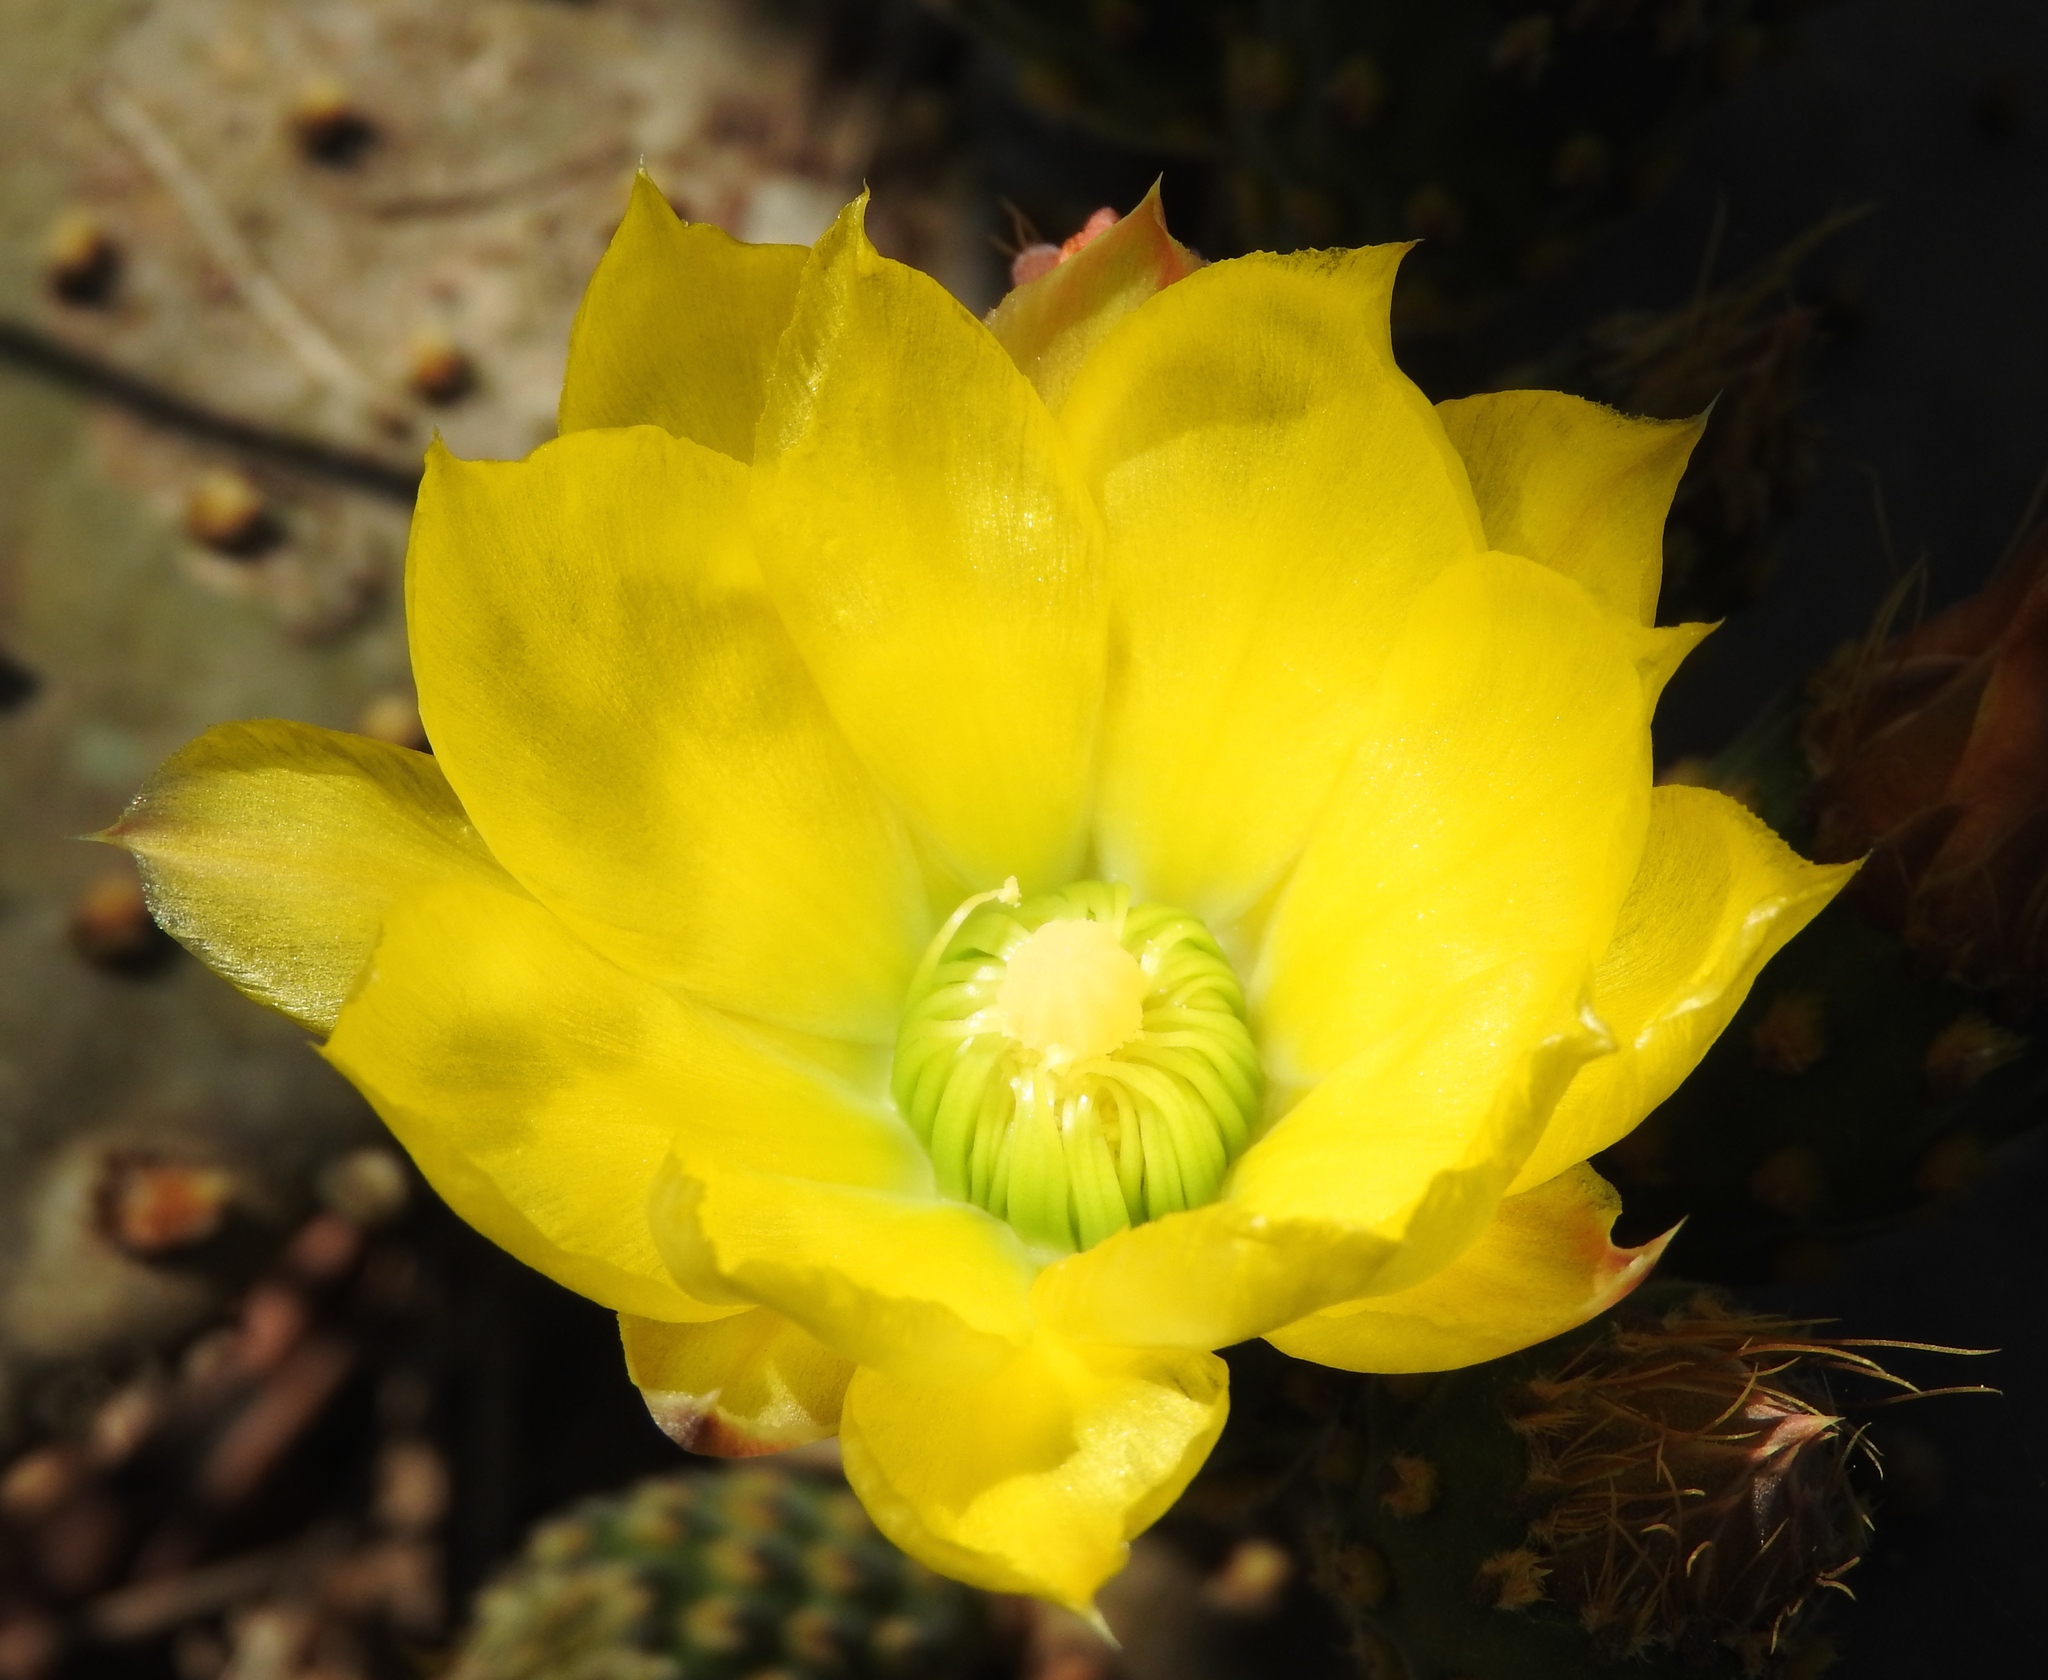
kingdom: Plantae
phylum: Tracheophyta
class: Magnoliopsida
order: Caryophyllales
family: Cactaceae
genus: Opuntia
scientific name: Opuntia decumbens
